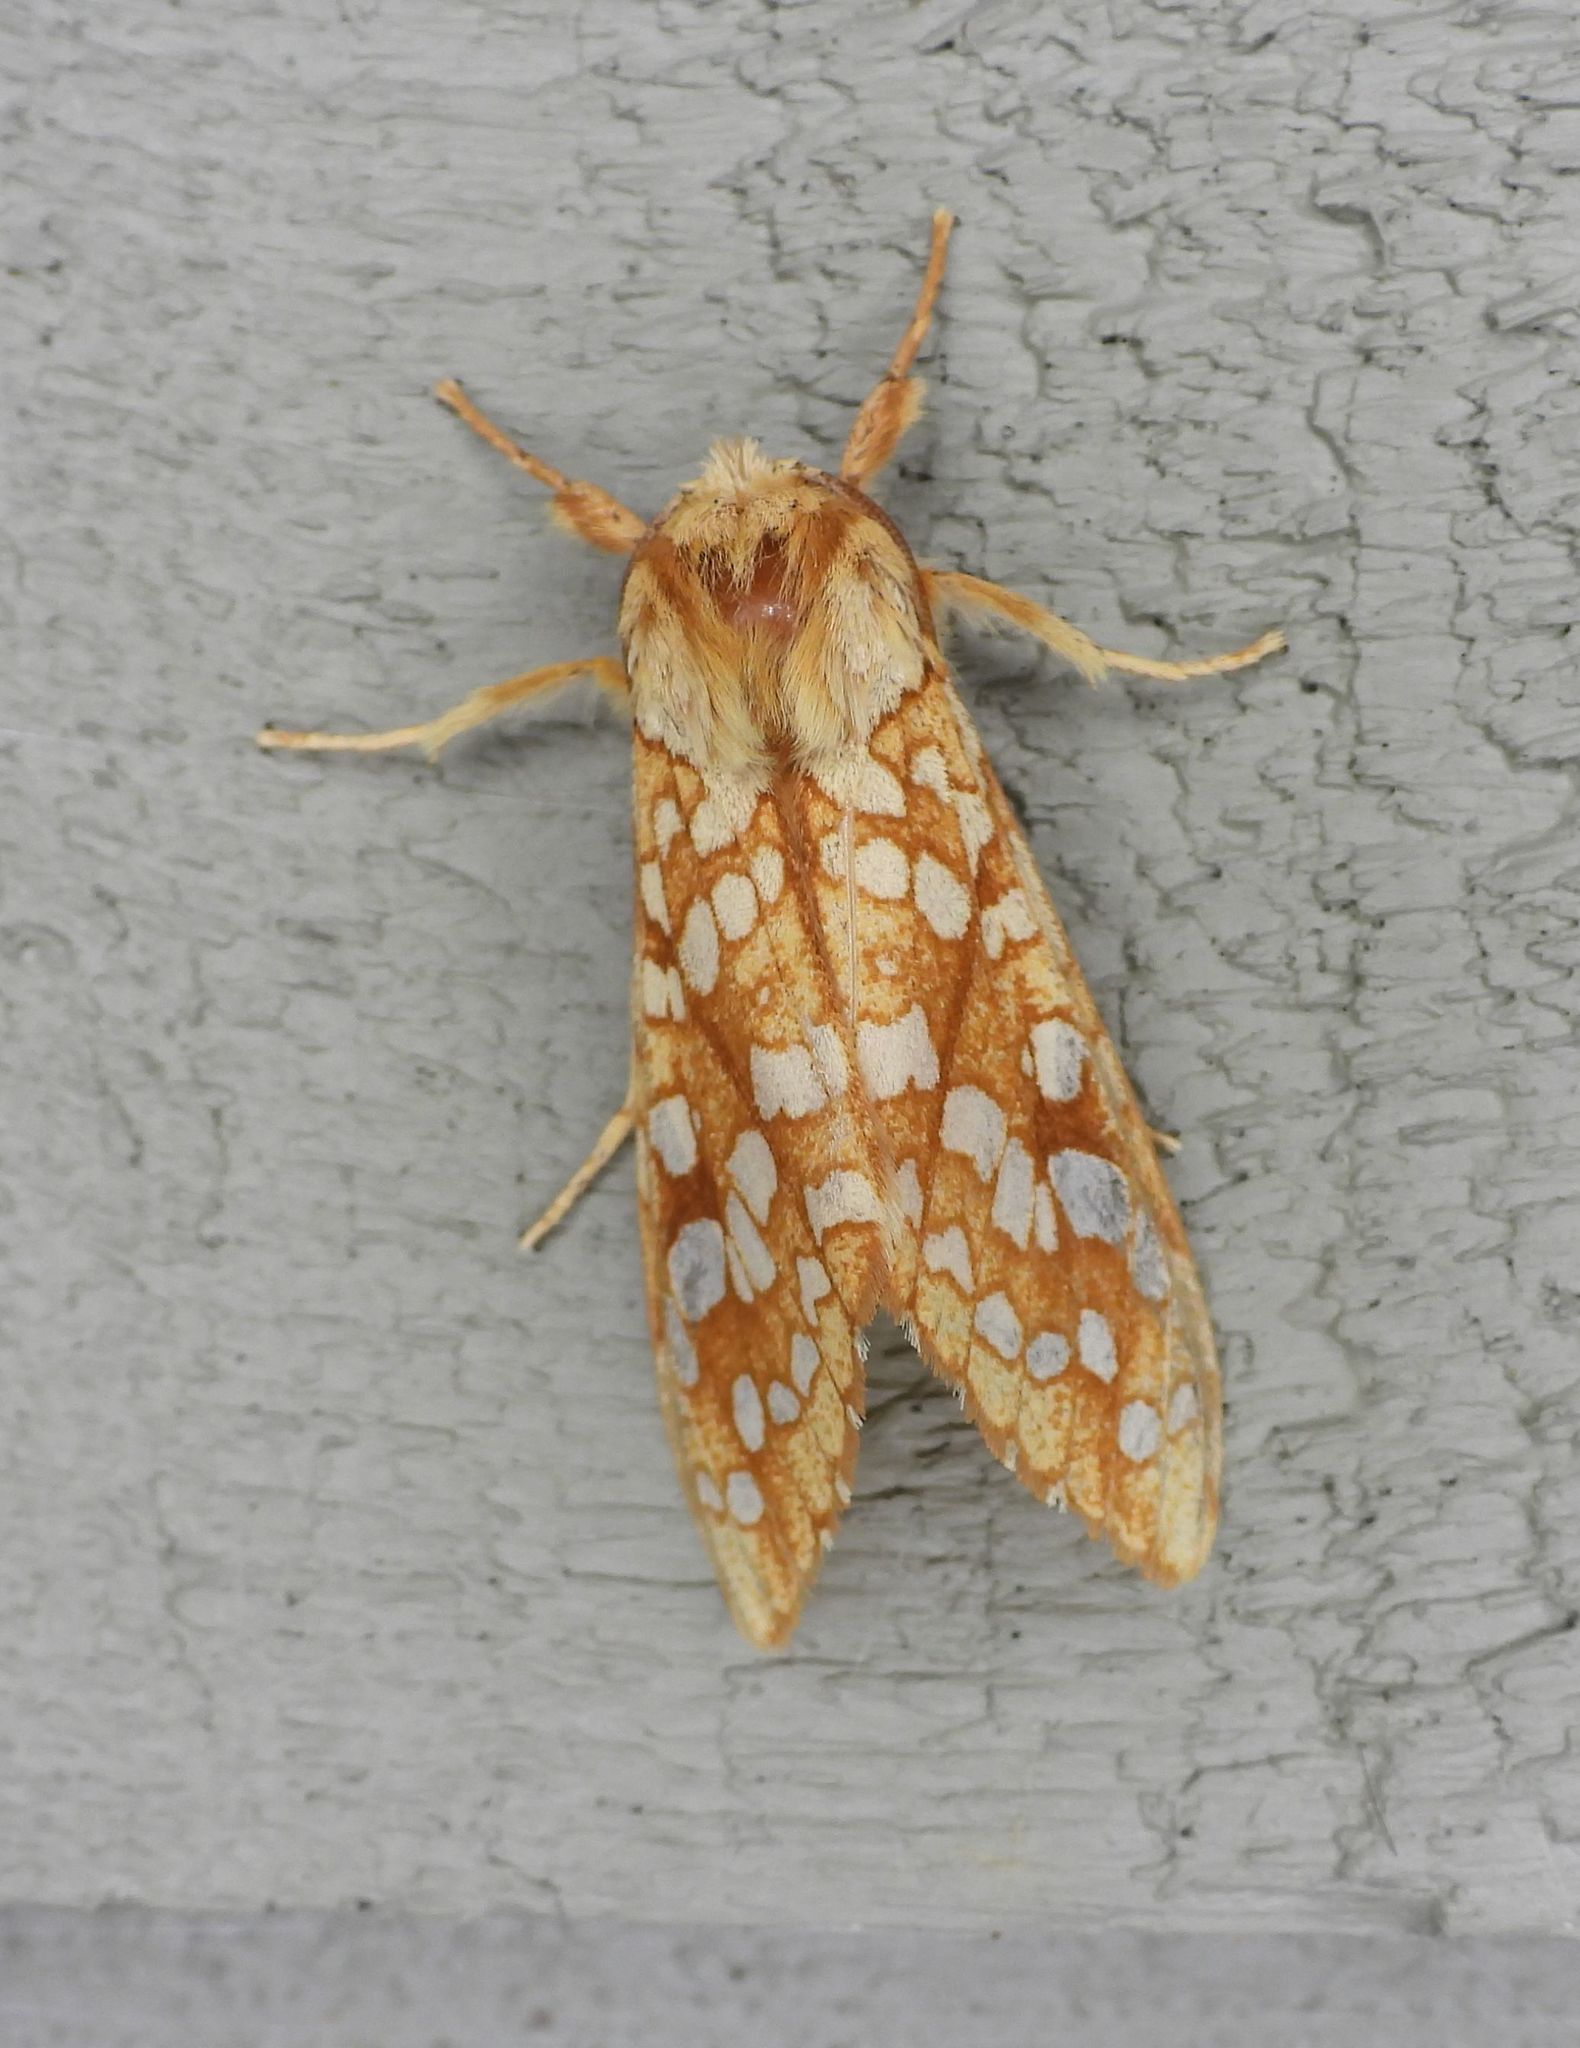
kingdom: Animalia
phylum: Arthropoda
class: Insecta
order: Lepidoptera
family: Erebidae
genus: Lophocampa
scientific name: Lophocampa caryae
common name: Hickory tussock moth
